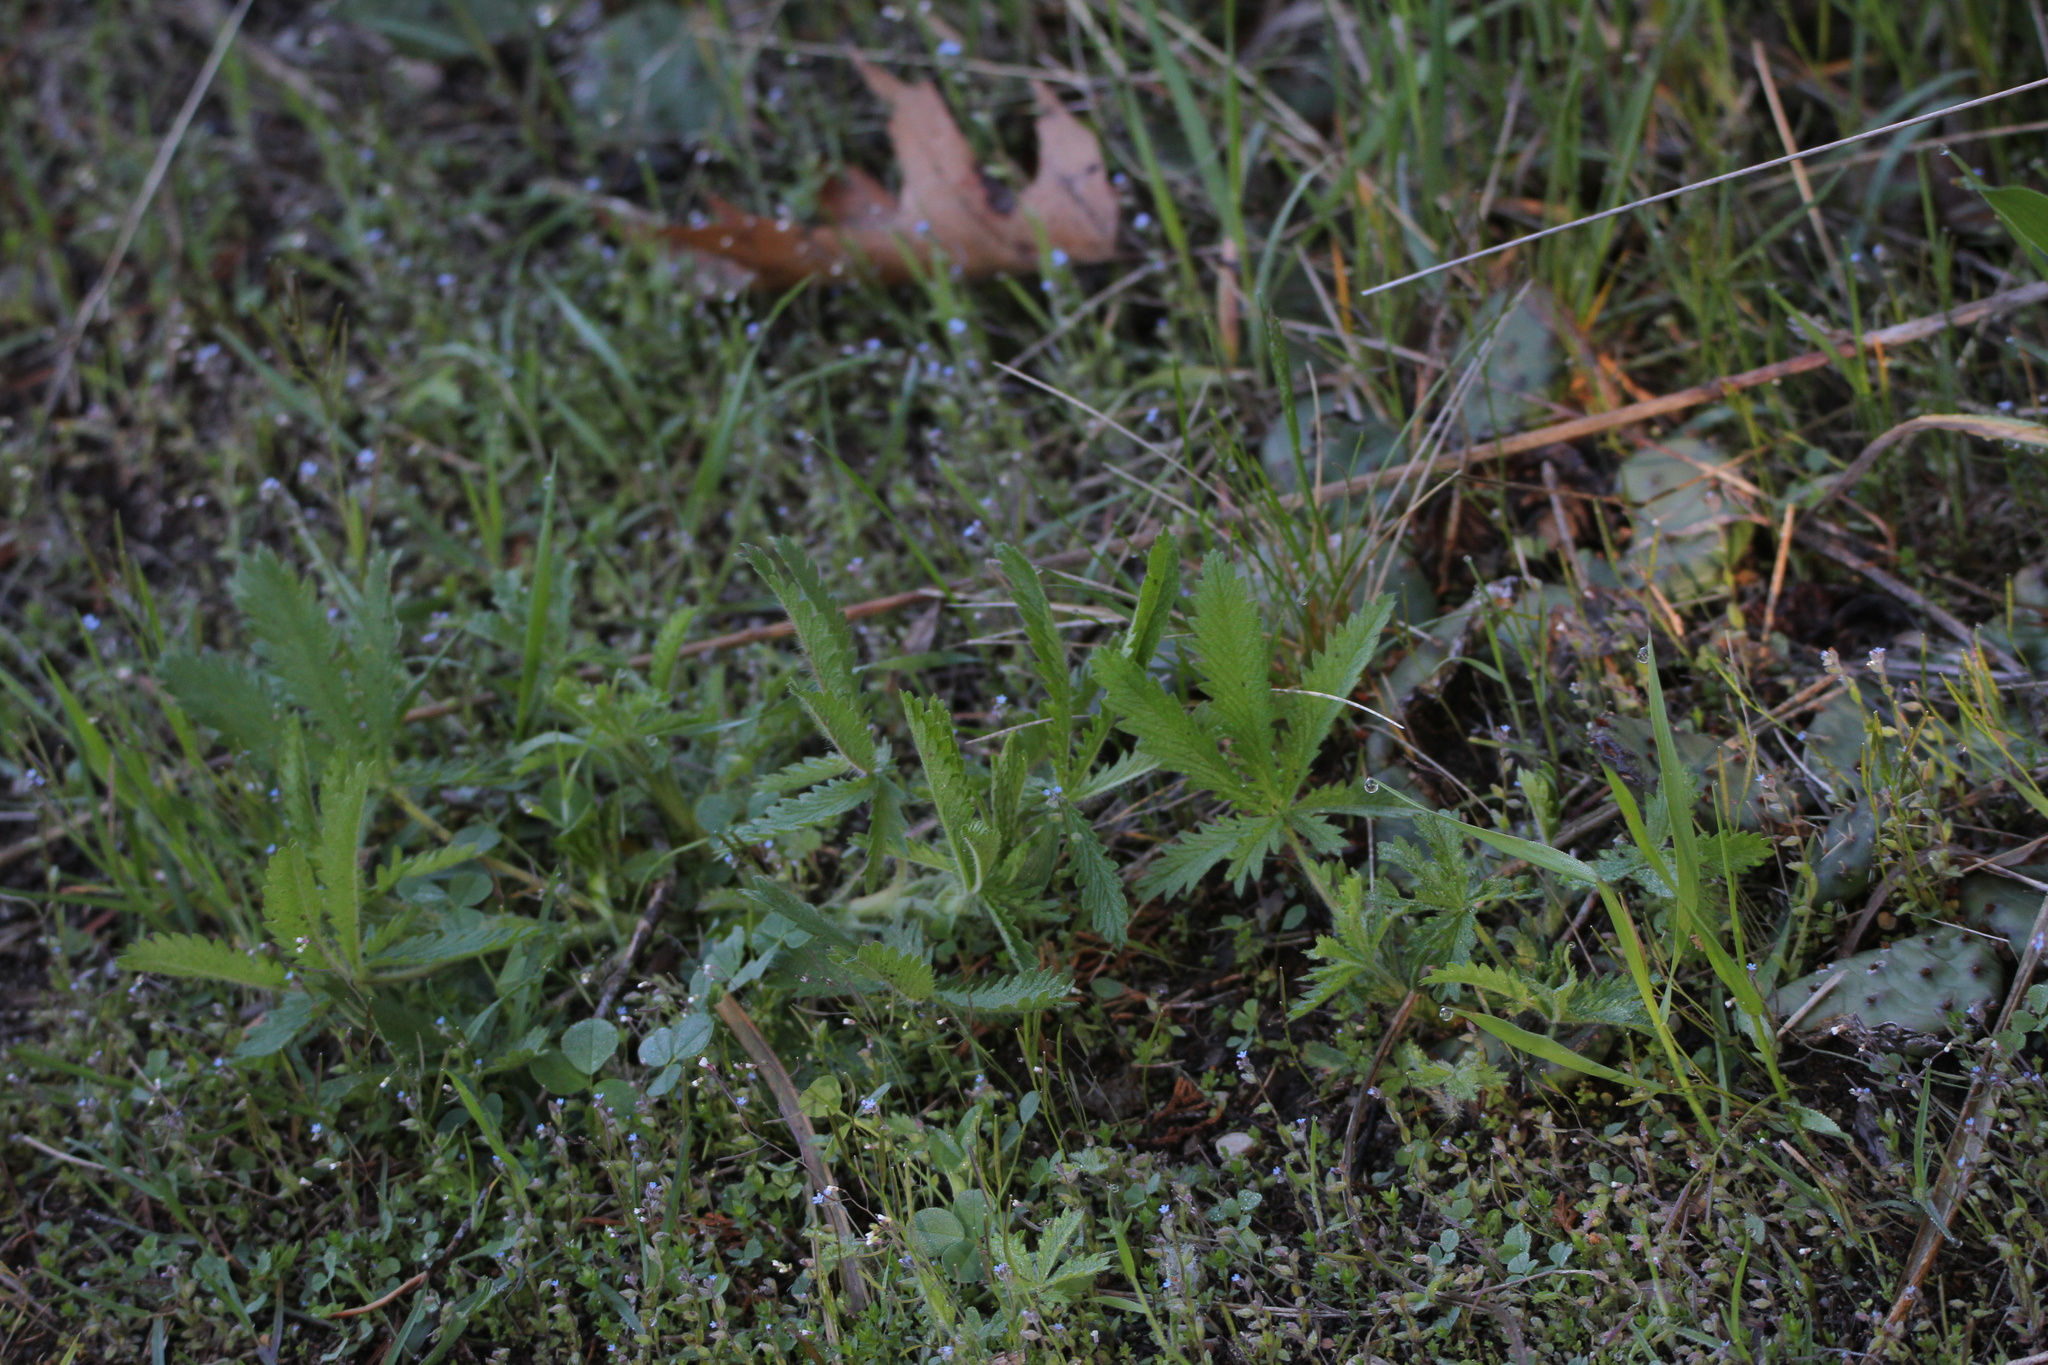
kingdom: Plantae
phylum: Tracheophyta
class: Magnoliopsida
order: Rosales
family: Rosaceae
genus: Potentilla
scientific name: Potentilla recta
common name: Sulphur cinquefoil
